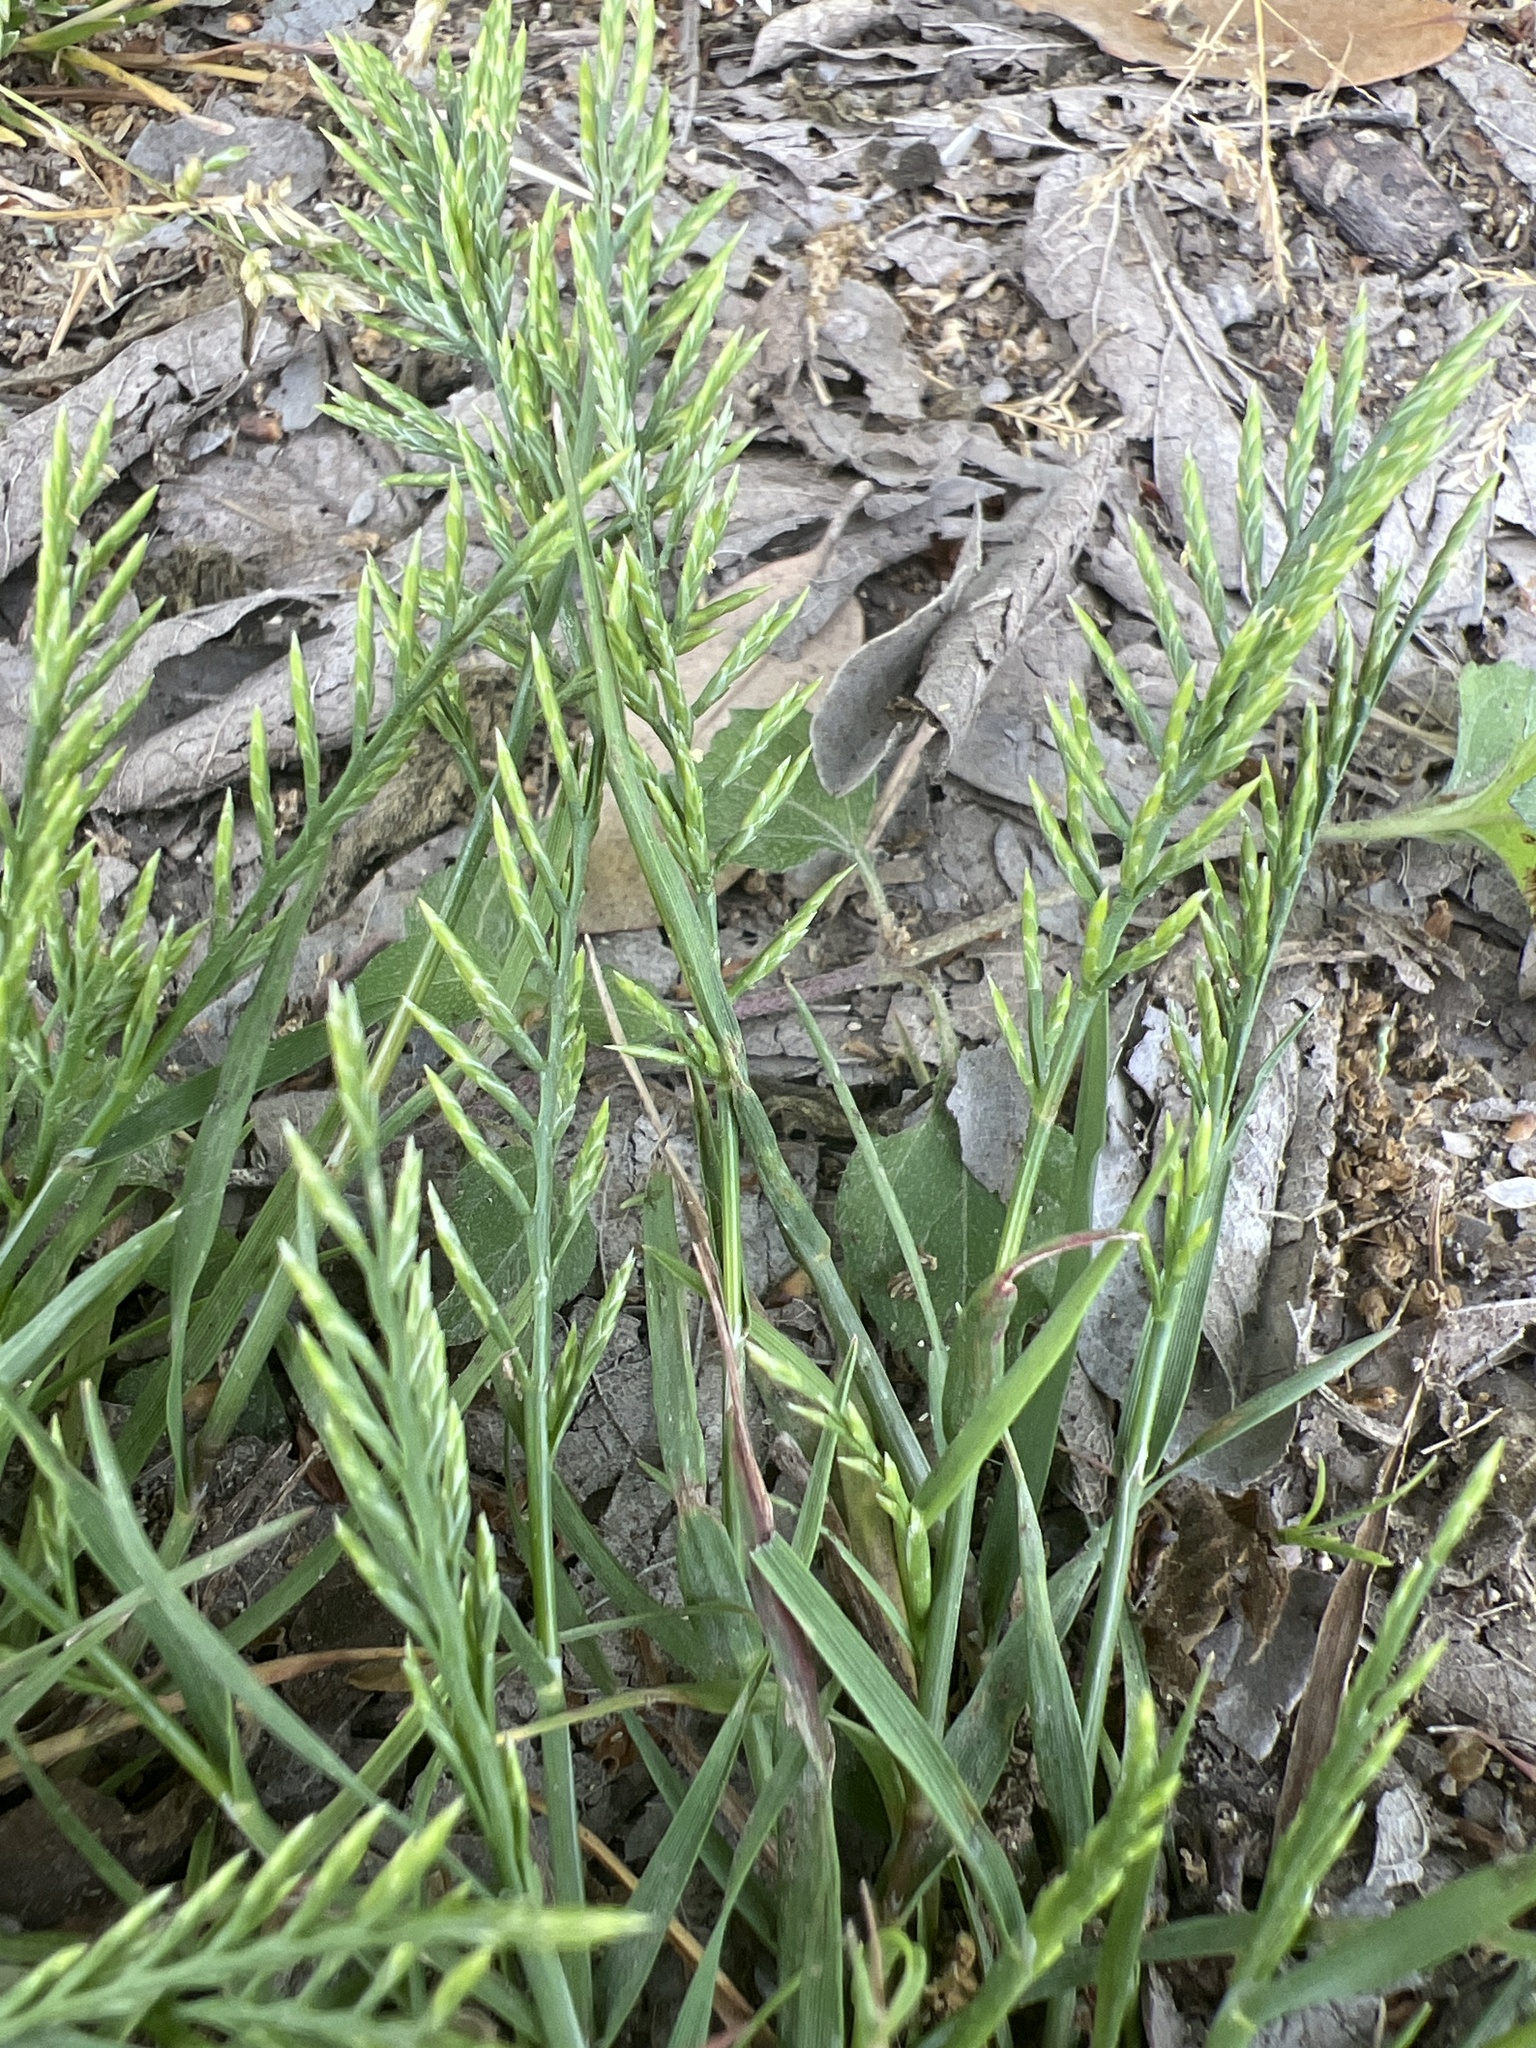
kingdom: Plantae
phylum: Tracheophyta
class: Liliopsida
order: Poales
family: Poaceae
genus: Catapodium
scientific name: Catapodium rigidum
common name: Fern-grass
